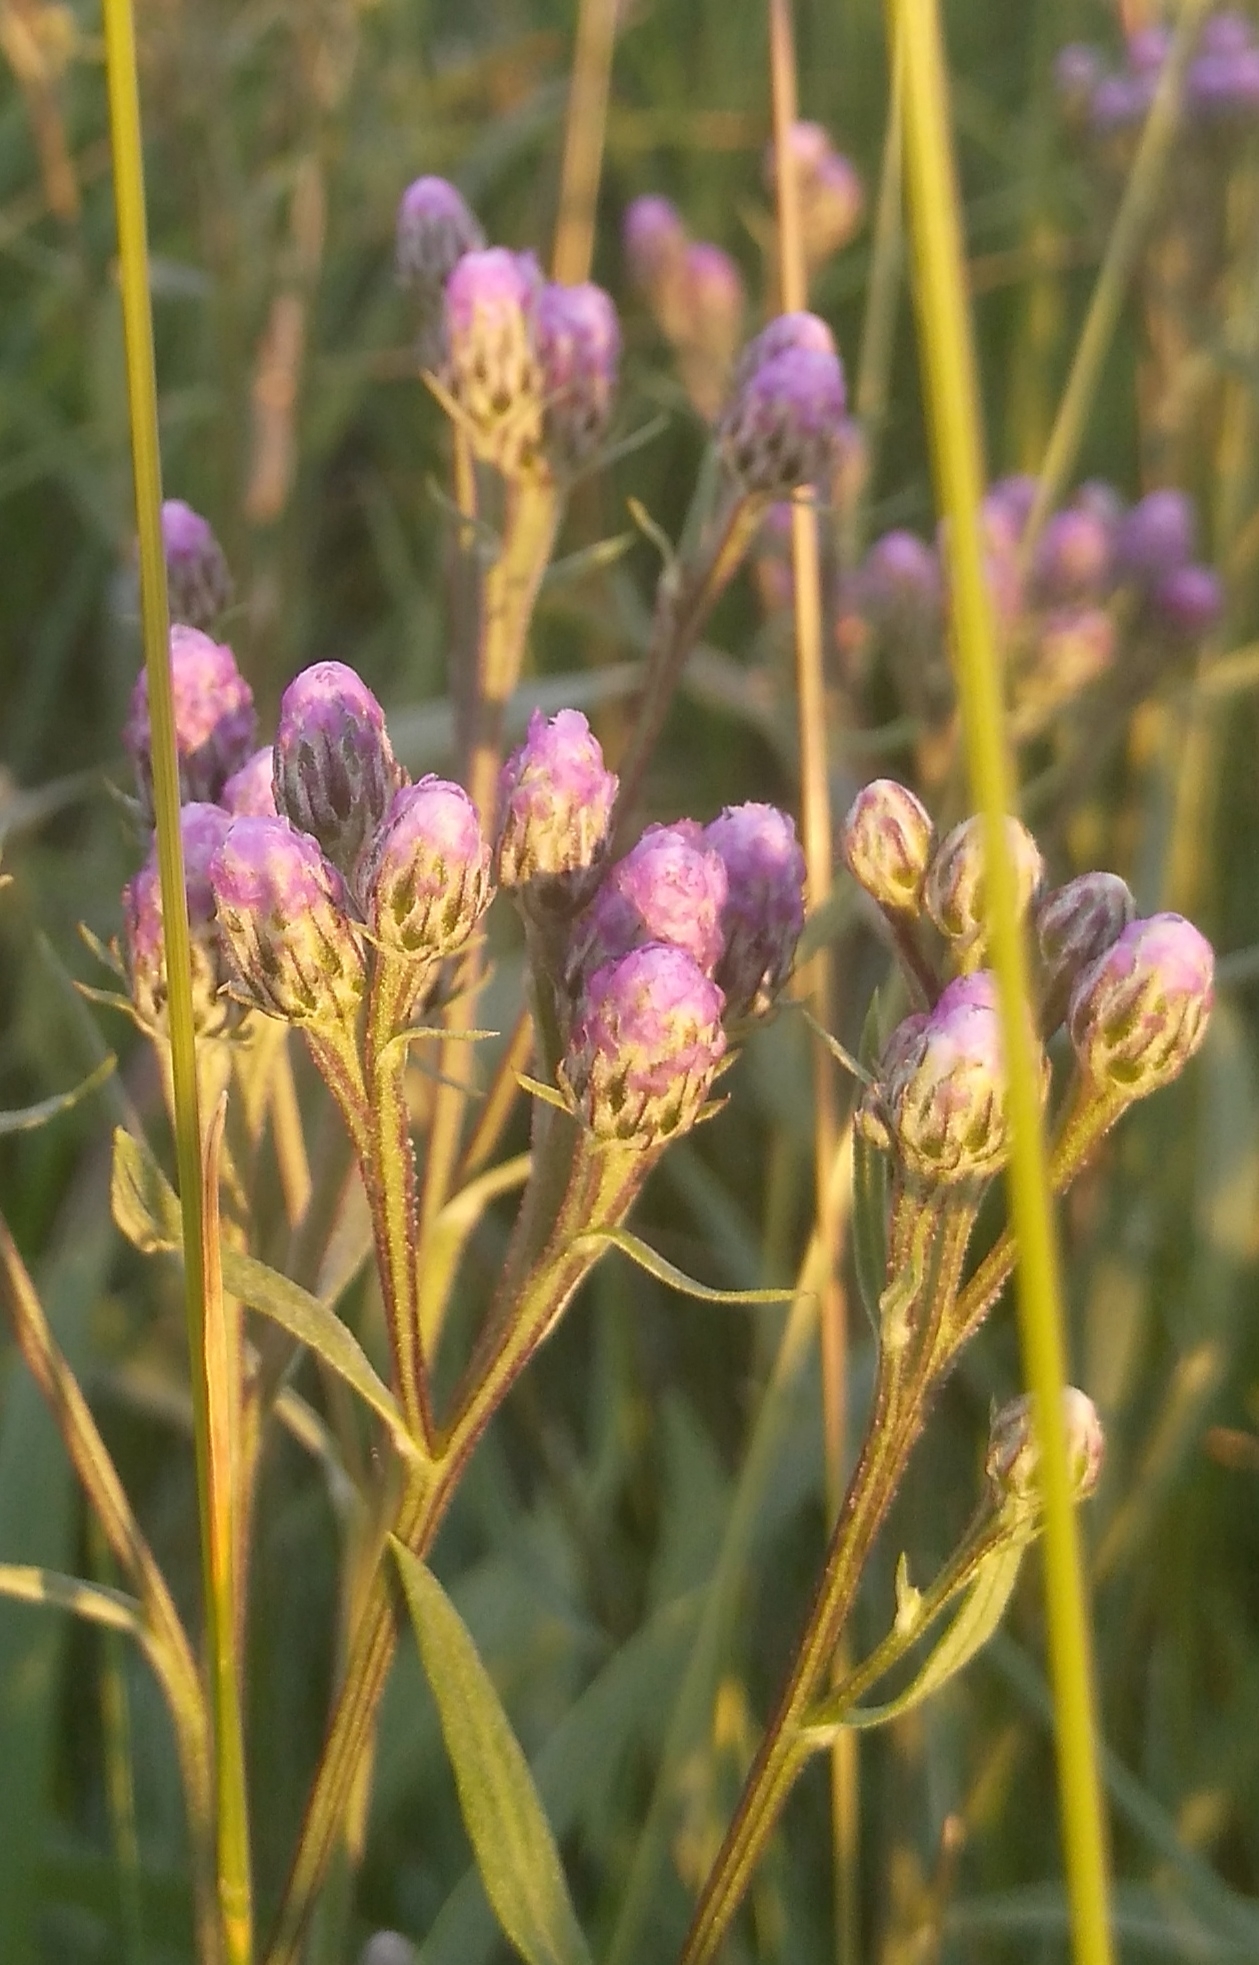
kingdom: Plantae
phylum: Tracheophyta
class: Magnoliopsida
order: Asterales
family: Asteraceae
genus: Saussurea
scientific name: Saussurea amara
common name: Alberta sawwort
